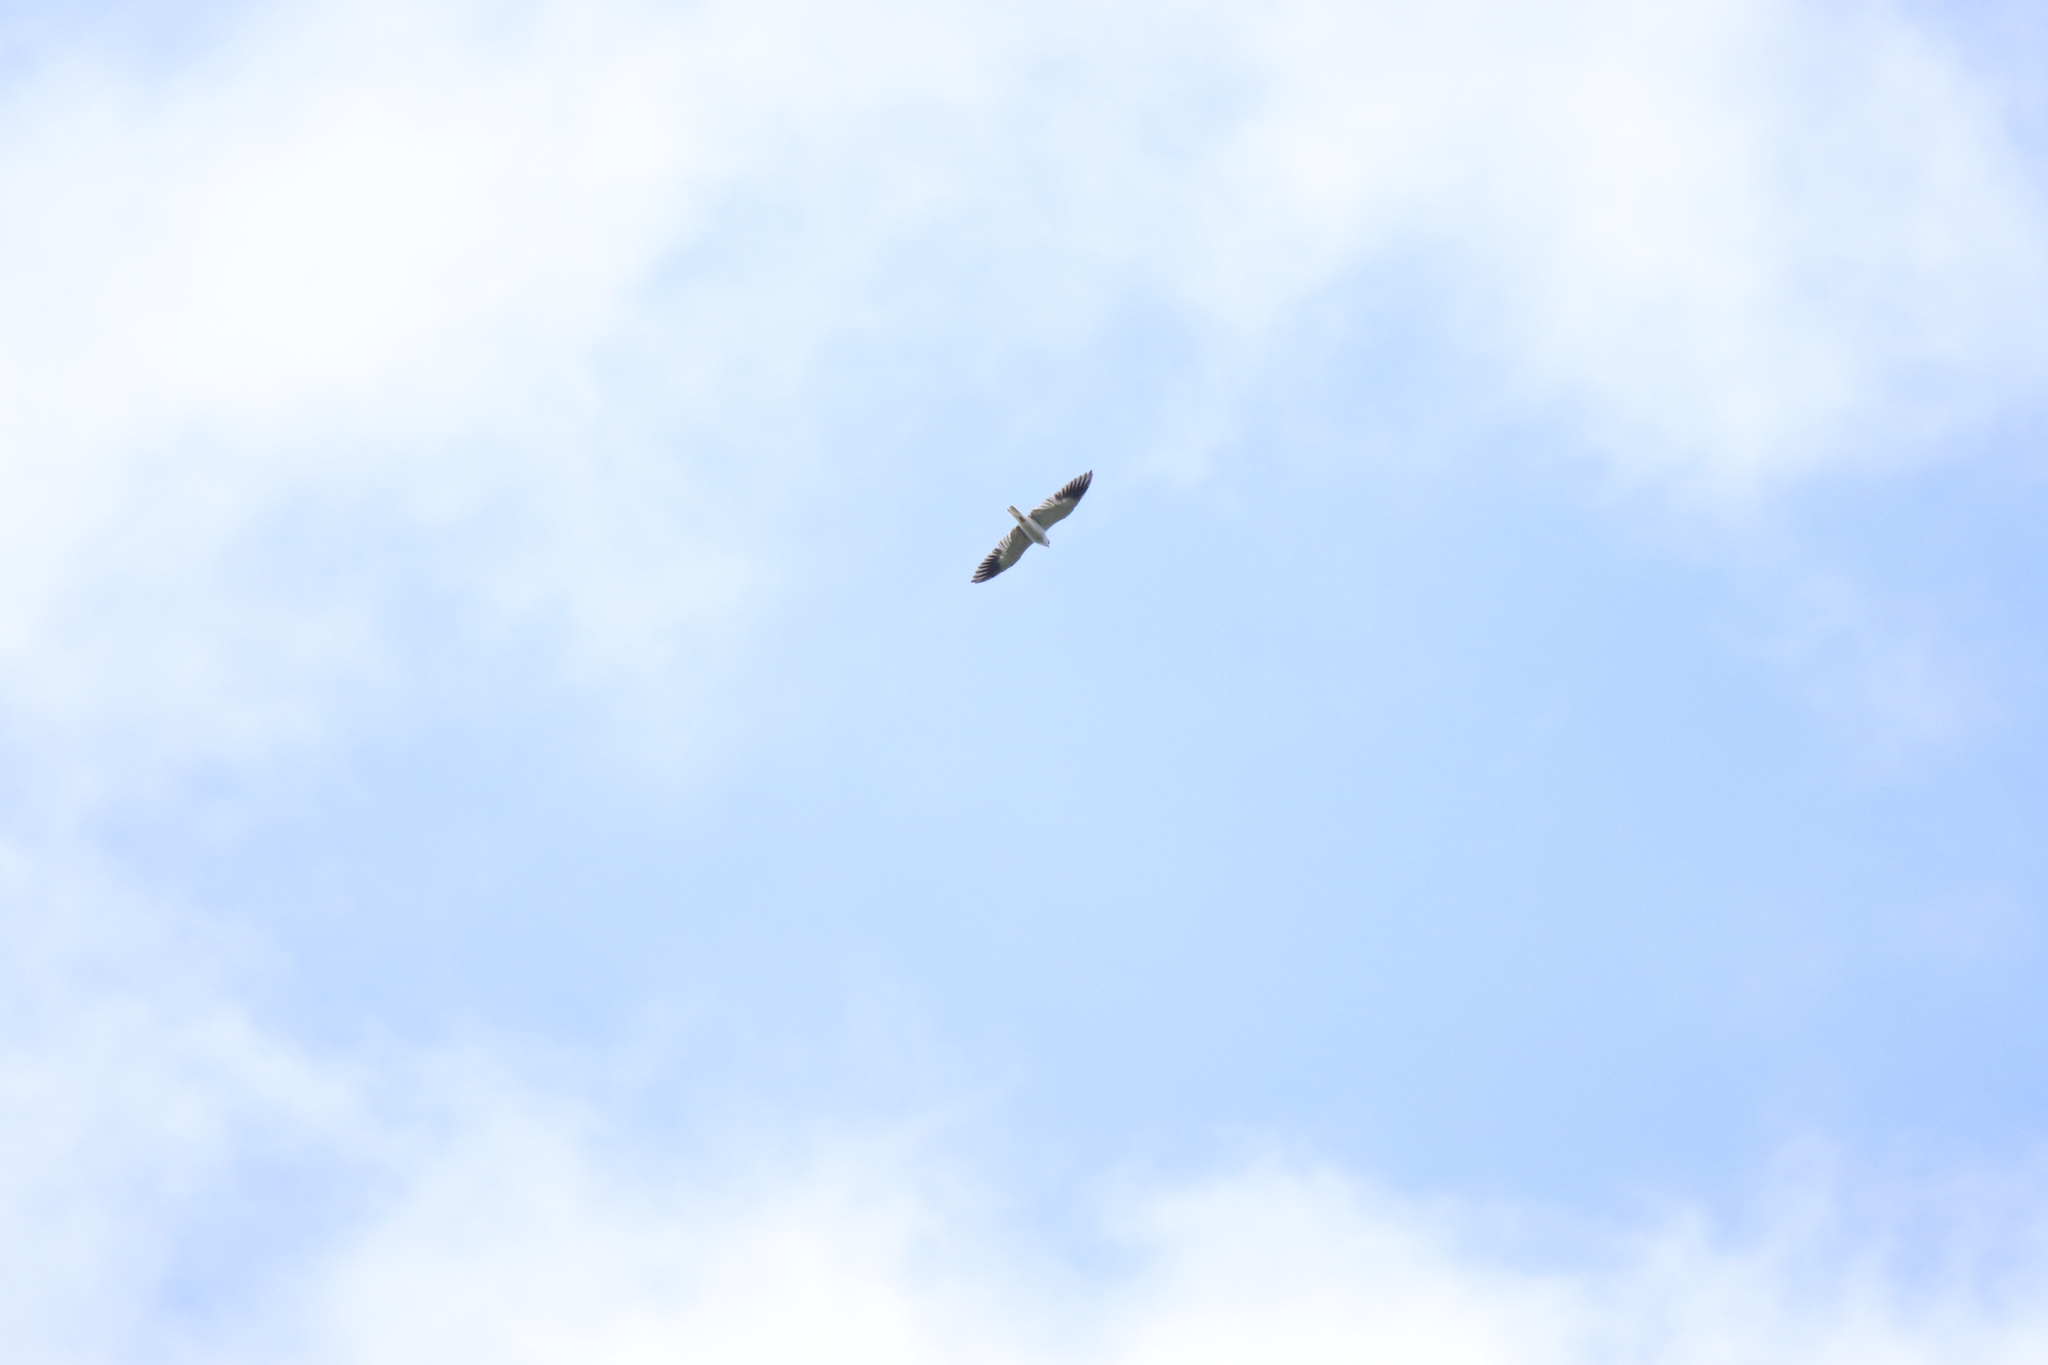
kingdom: Animalia
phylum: Chordata
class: Aves
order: Accipitriformes
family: Accipitridae
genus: Elanus
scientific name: Elanus caeruleus
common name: Black-winged kite
